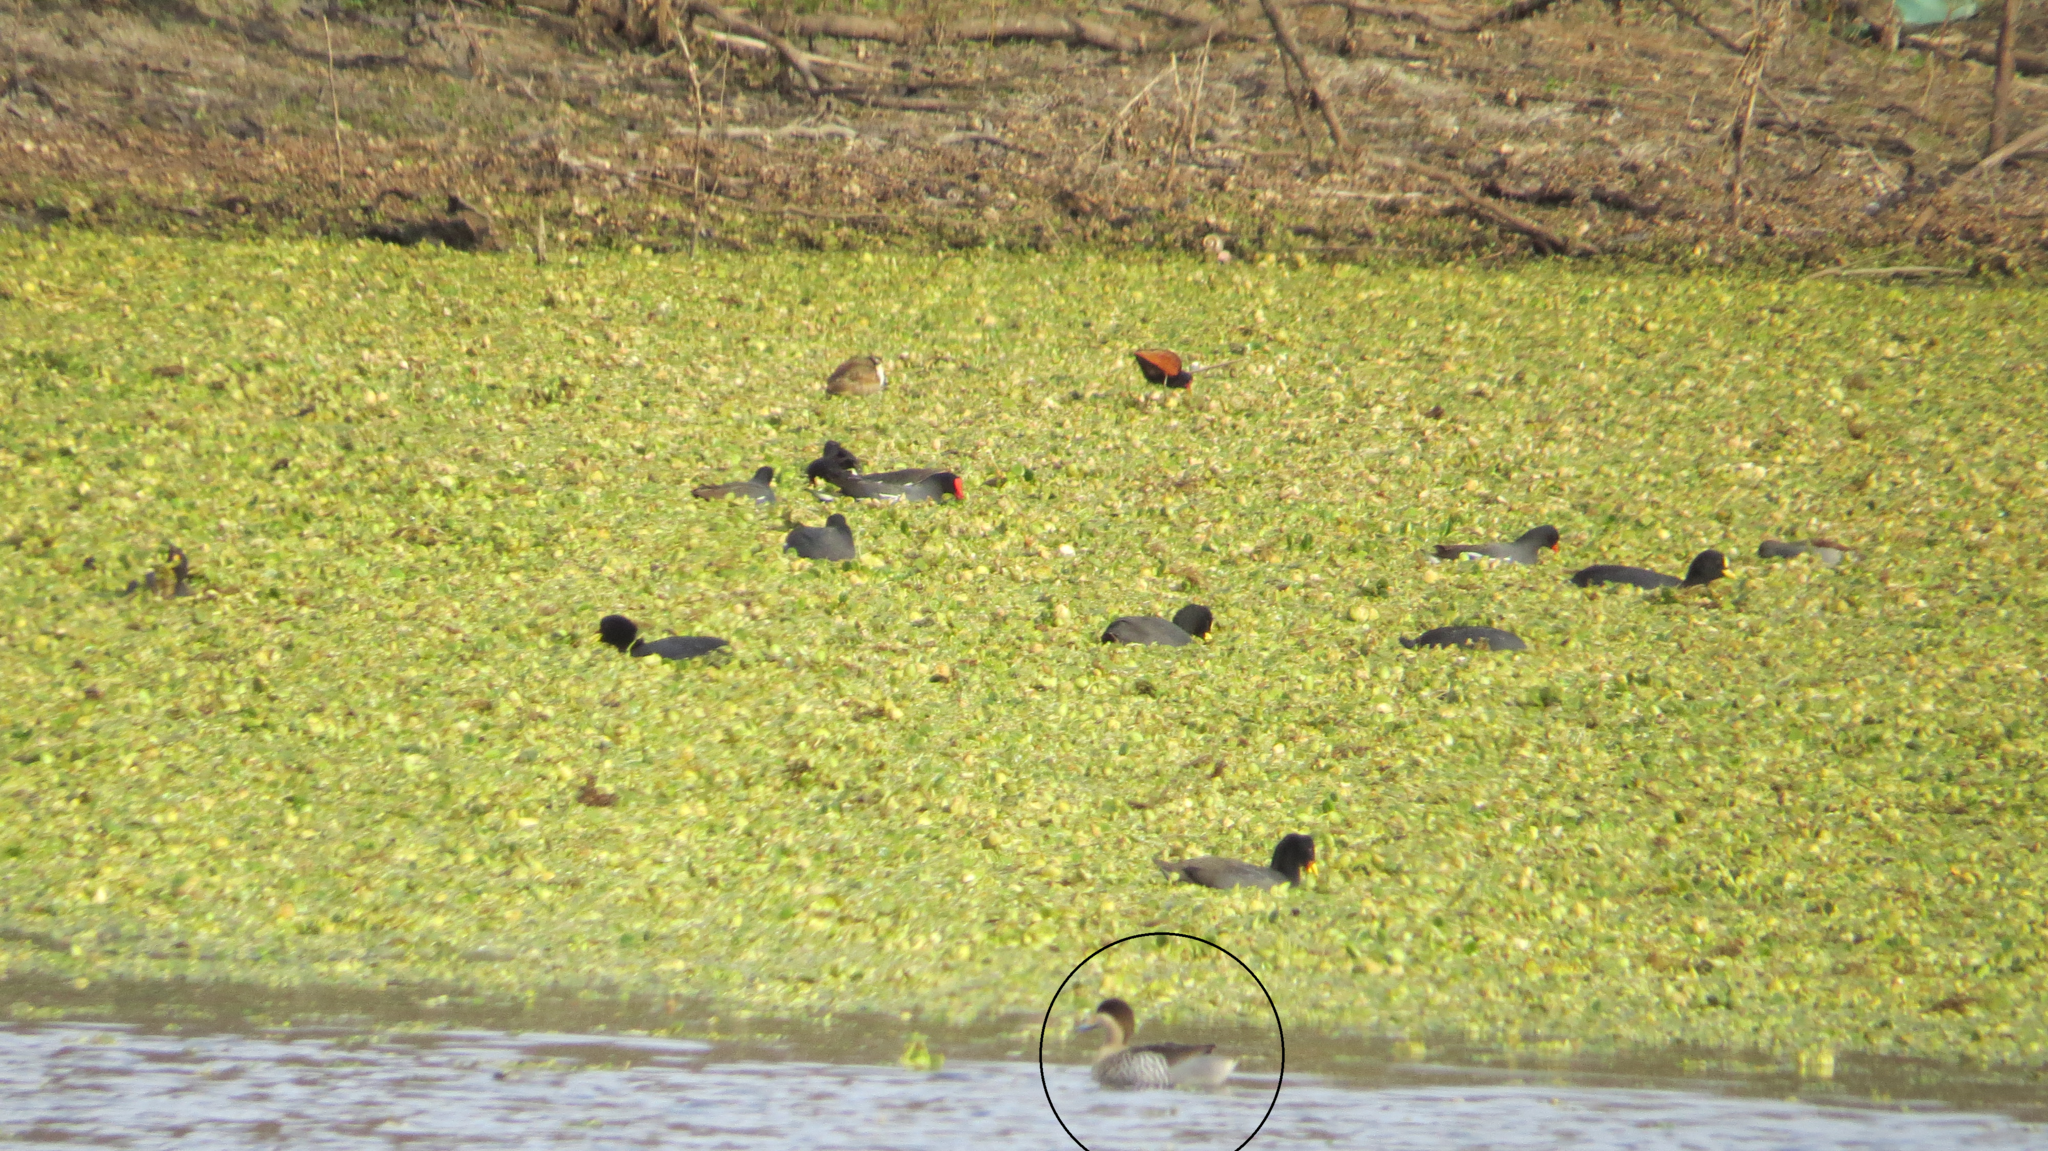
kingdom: Animalia
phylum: Chordata
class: Aves
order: Anseriformes
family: Anatidae
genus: Spatula
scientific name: Spatula versicolor
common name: Silver teal
